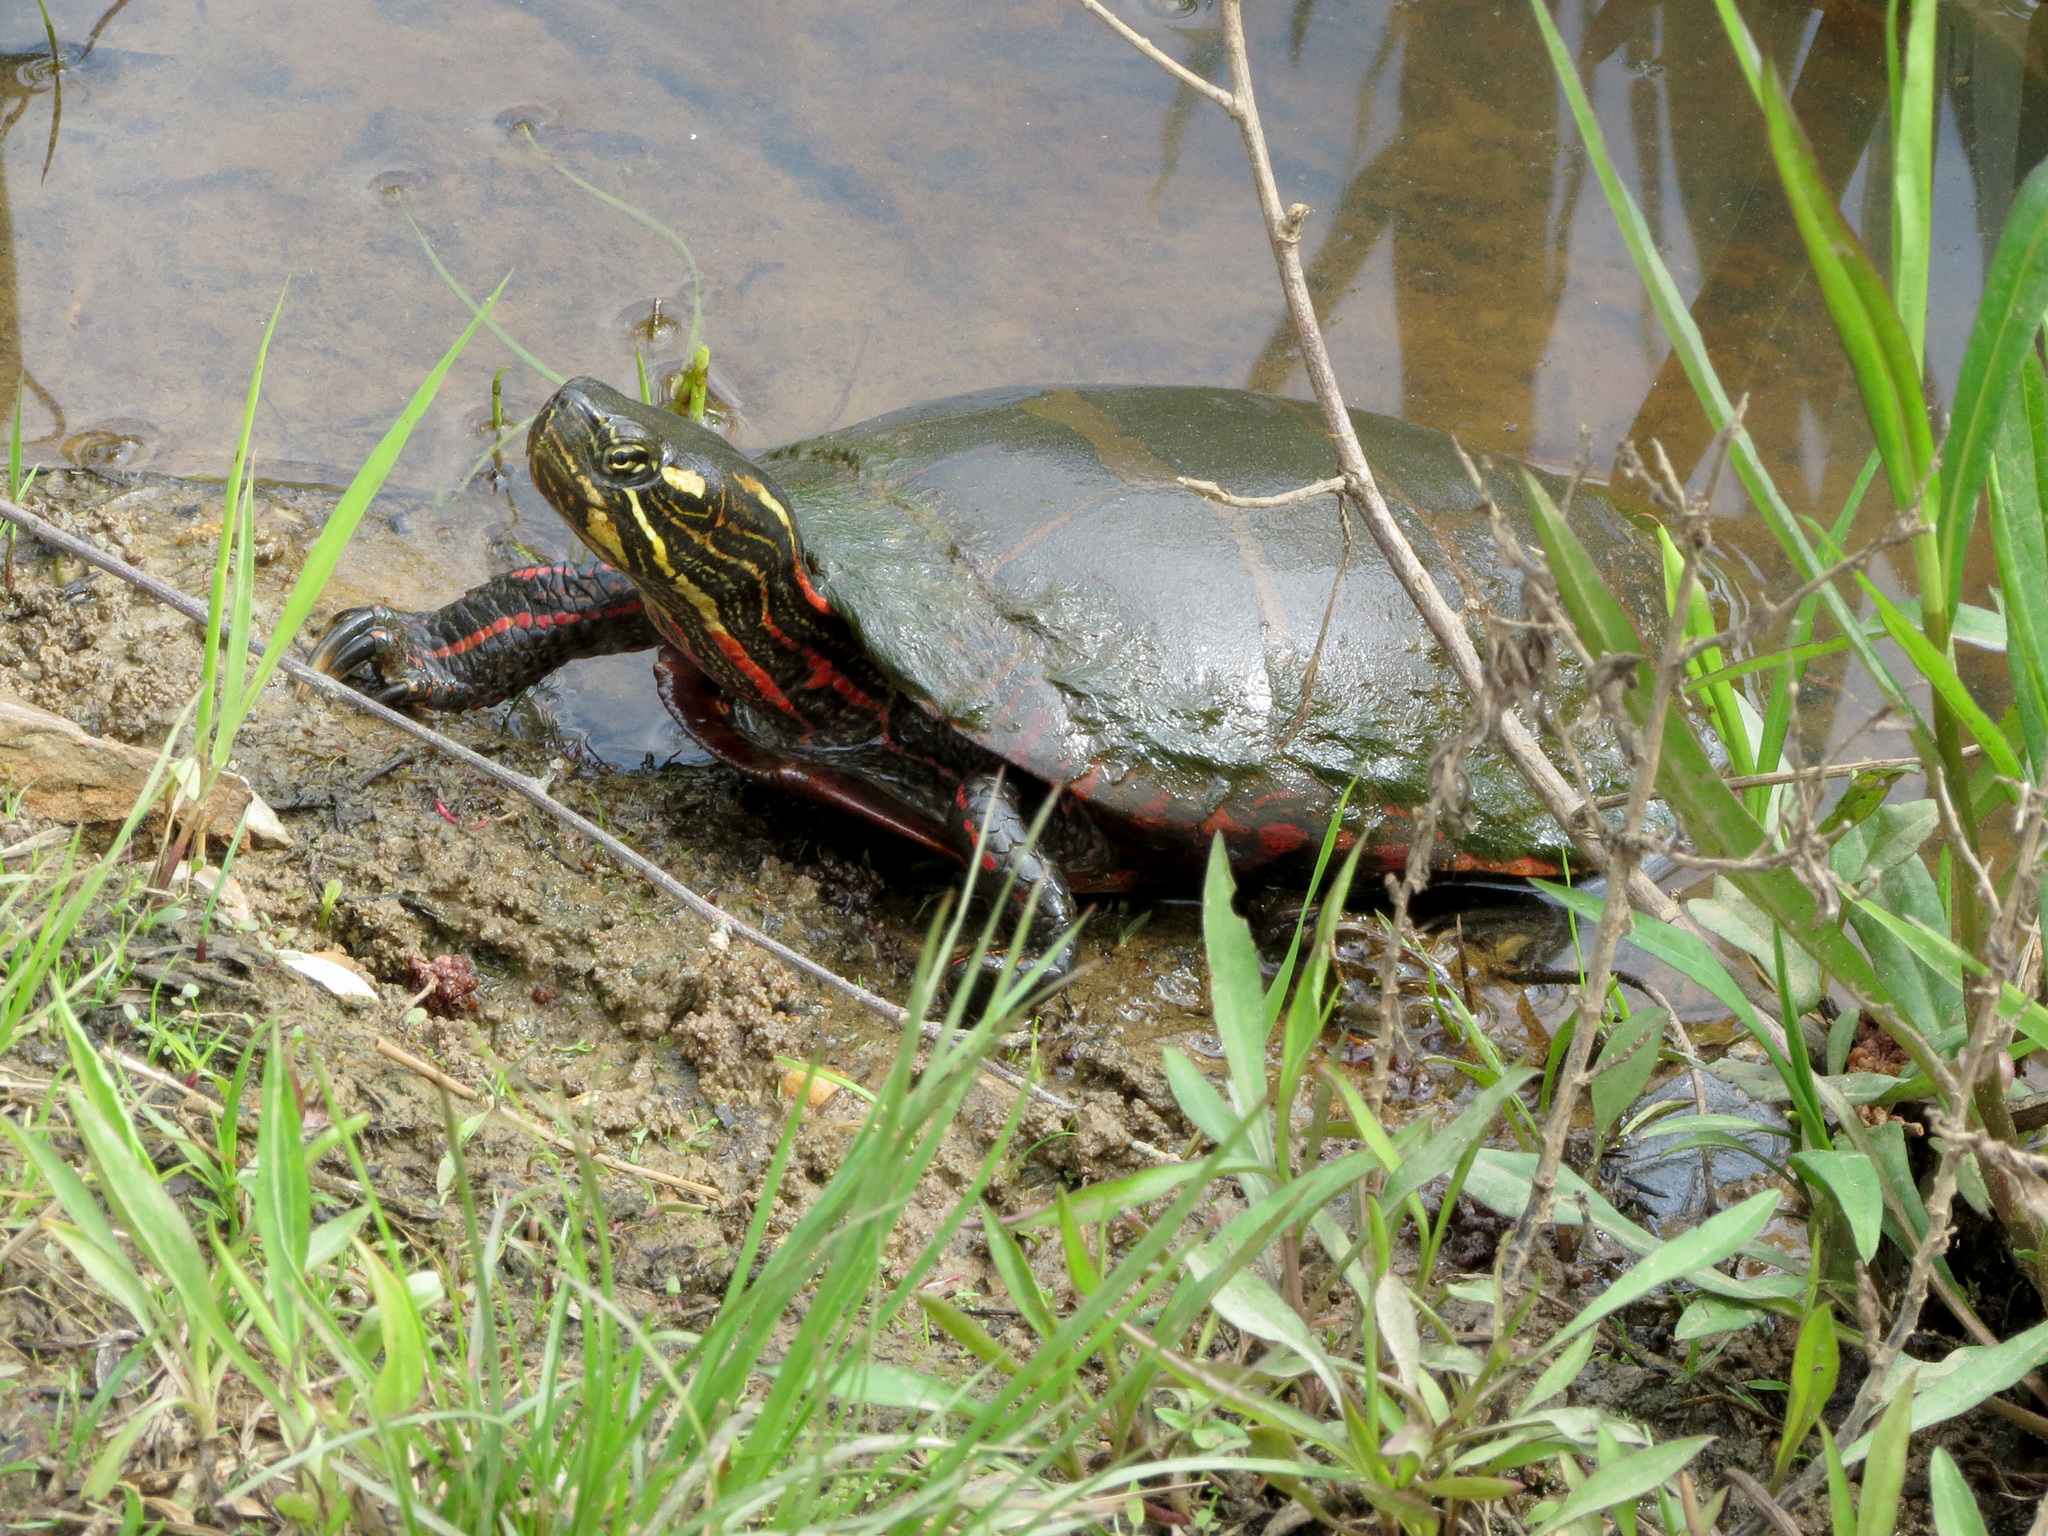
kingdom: Animalia
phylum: Chordata
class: Testudines
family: Emydidae
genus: Chrysemys
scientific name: Chrysemys picta
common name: Painted turtle
